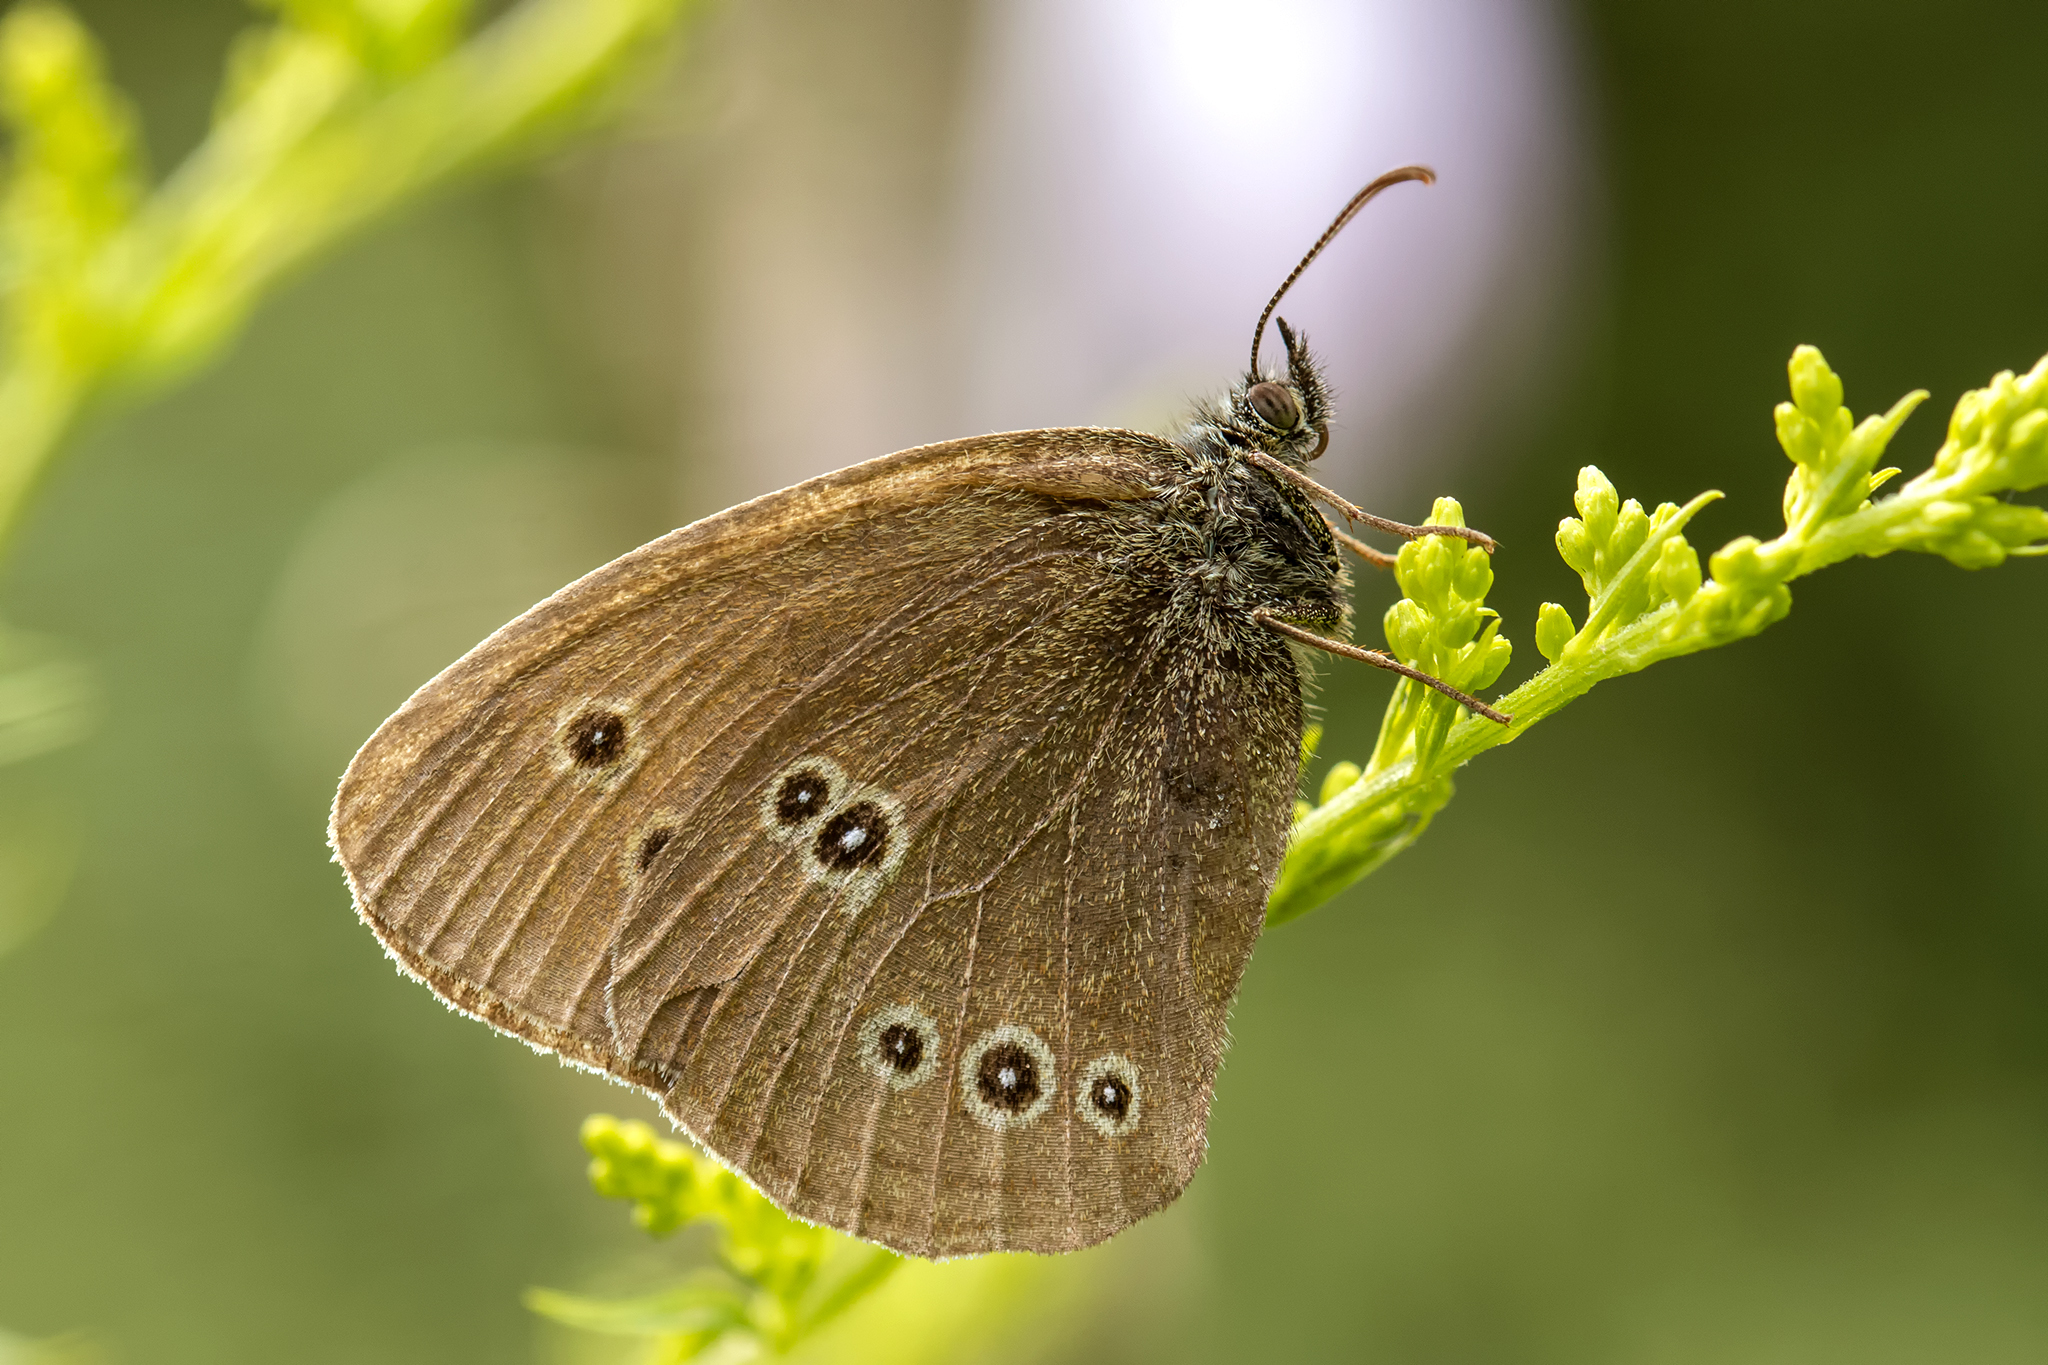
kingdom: Animalia
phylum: Arthropoda
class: Insecta
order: Lepidoptera
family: Nymphalidae
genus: Aphantopus
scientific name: Aphantopus hyperantus
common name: Ringlet
